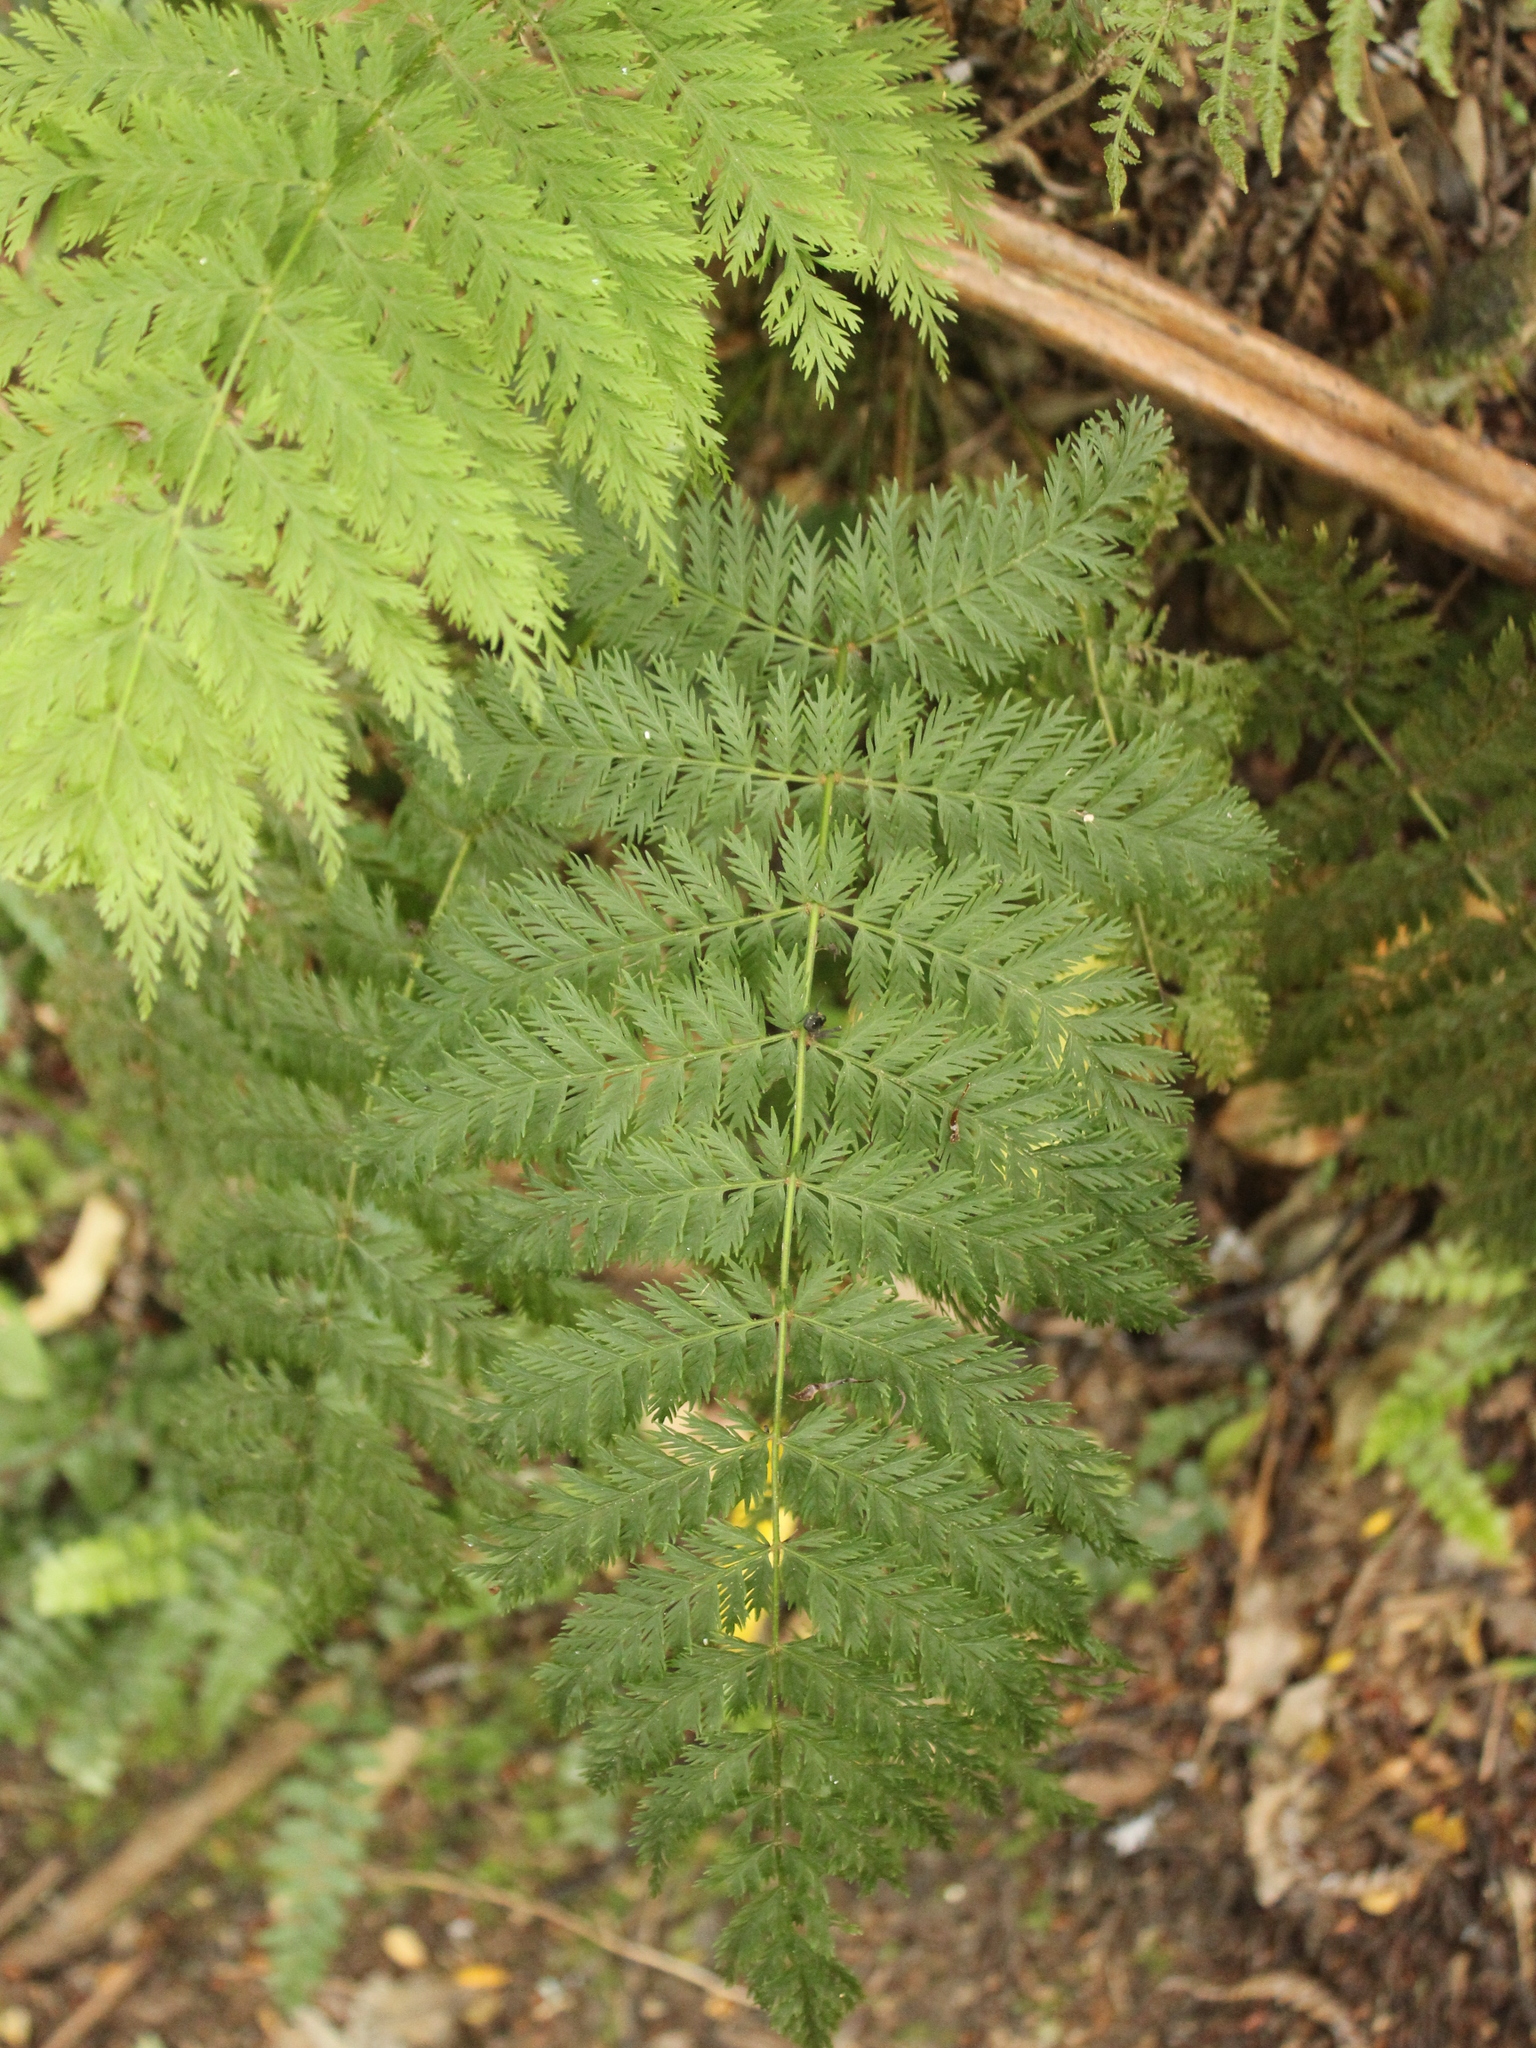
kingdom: Plantae
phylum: Tracheophyta
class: Polypodiopsida
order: Osmundales
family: Osmundaceae
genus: Leptopteris
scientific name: Leptopteris hymenophylloides
